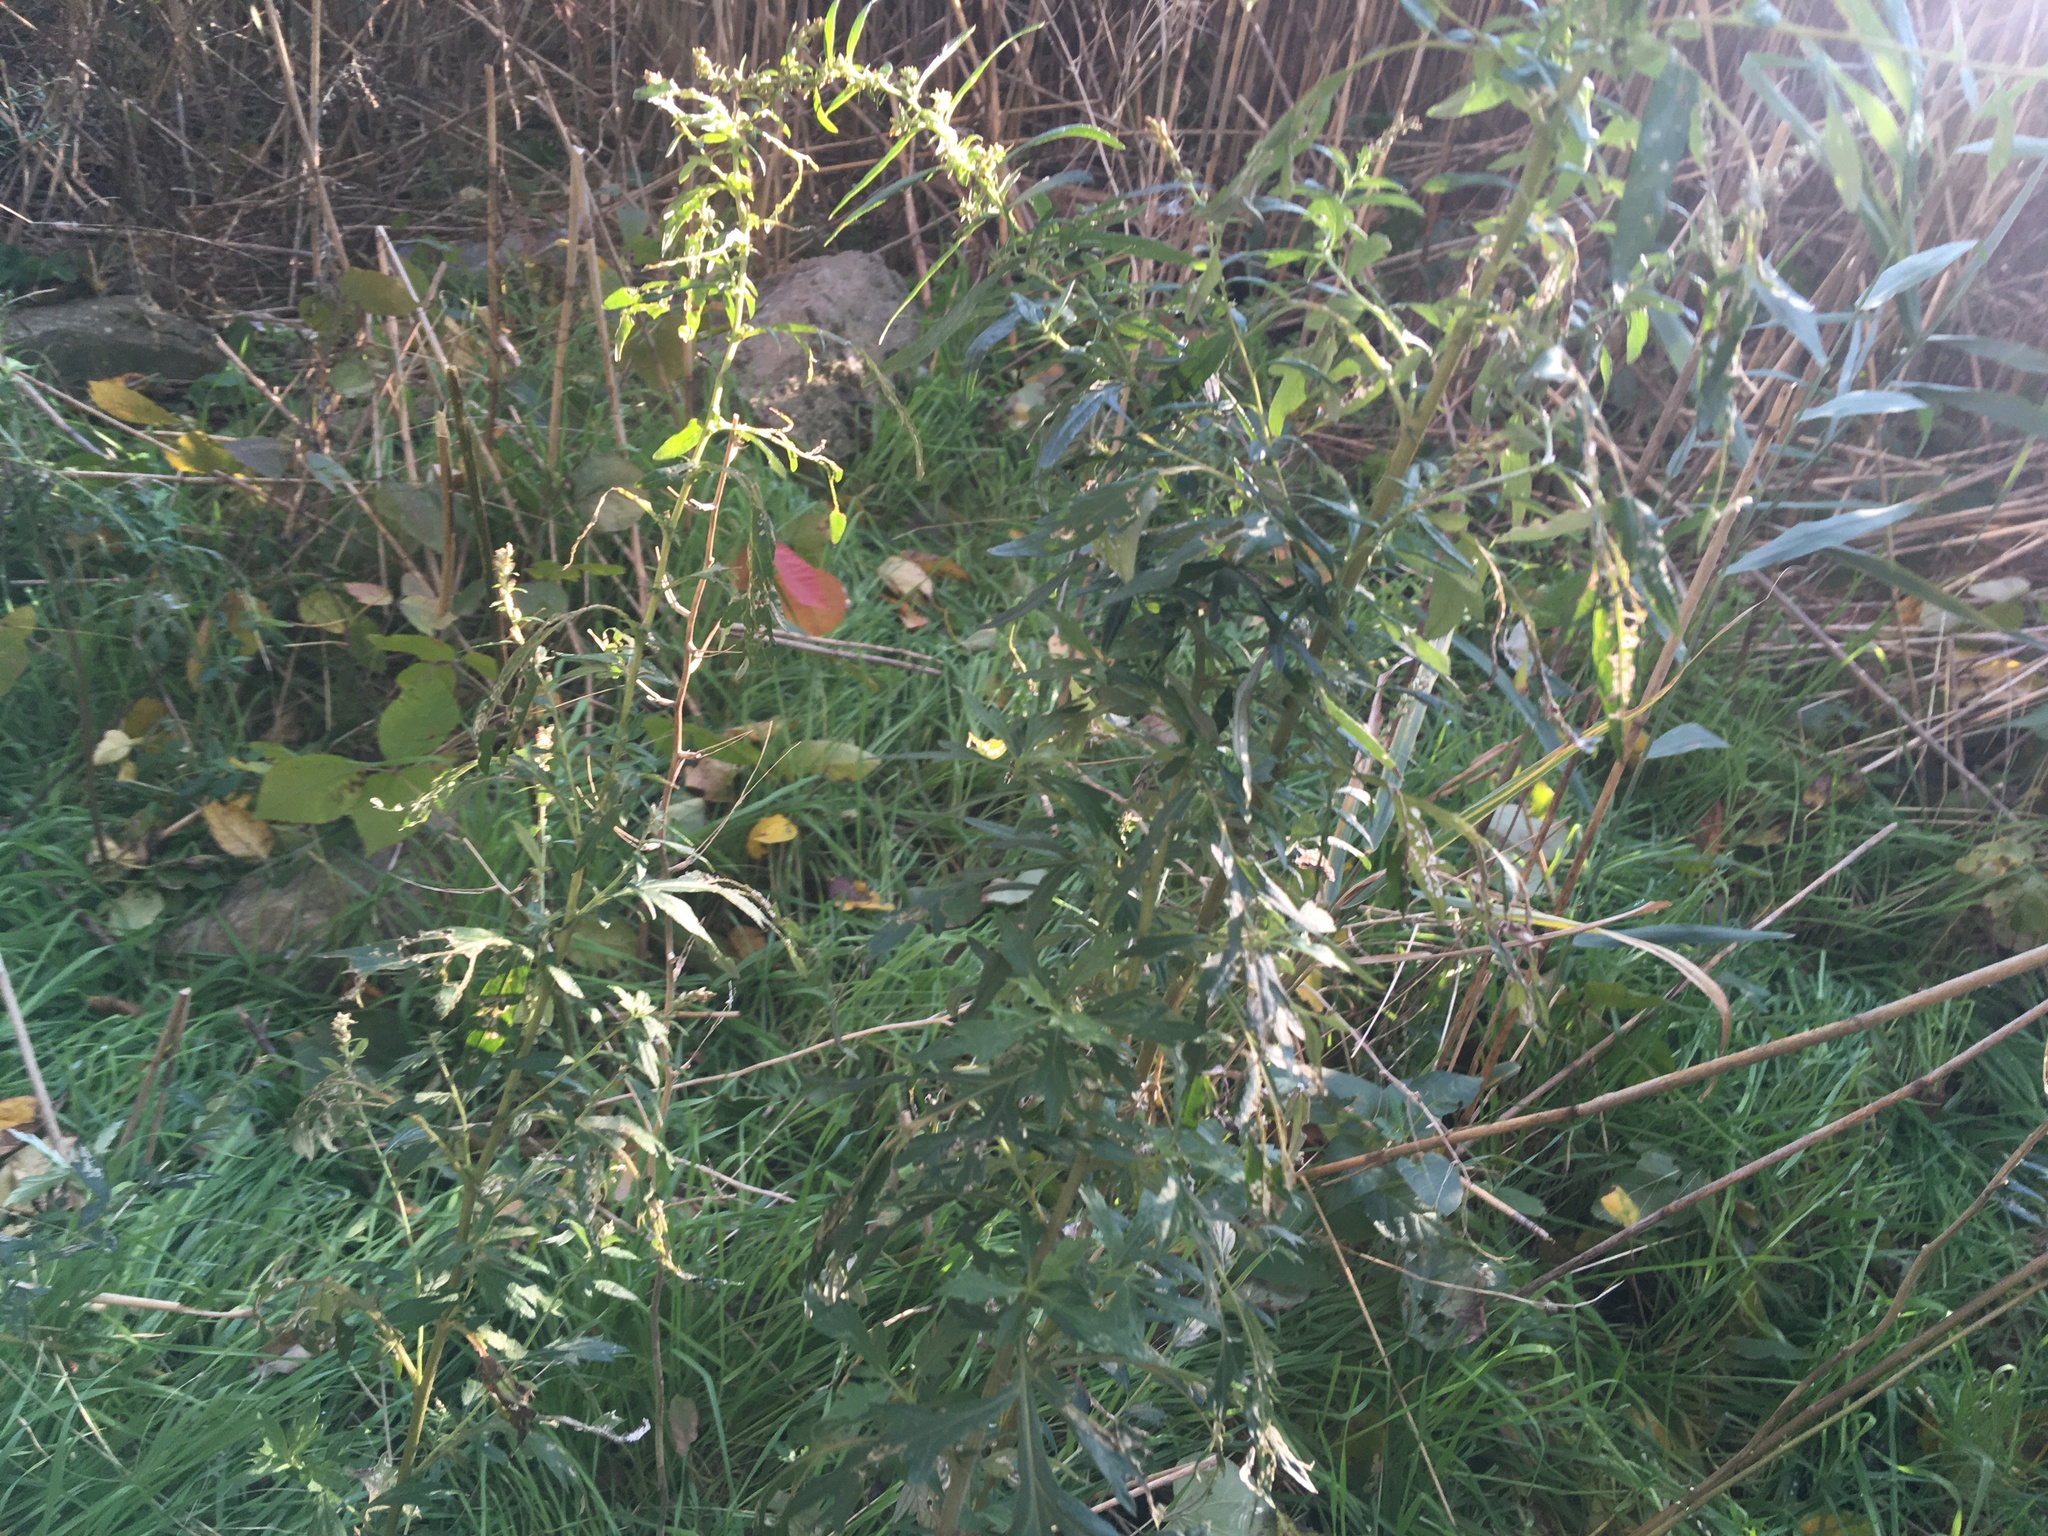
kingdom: Plantae
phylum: Tracheophyta
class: Magnoliopsida
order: Asterales
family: Asteraceae
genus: Artemisia
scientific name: Artemisia vulgaris
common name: Mugwort
